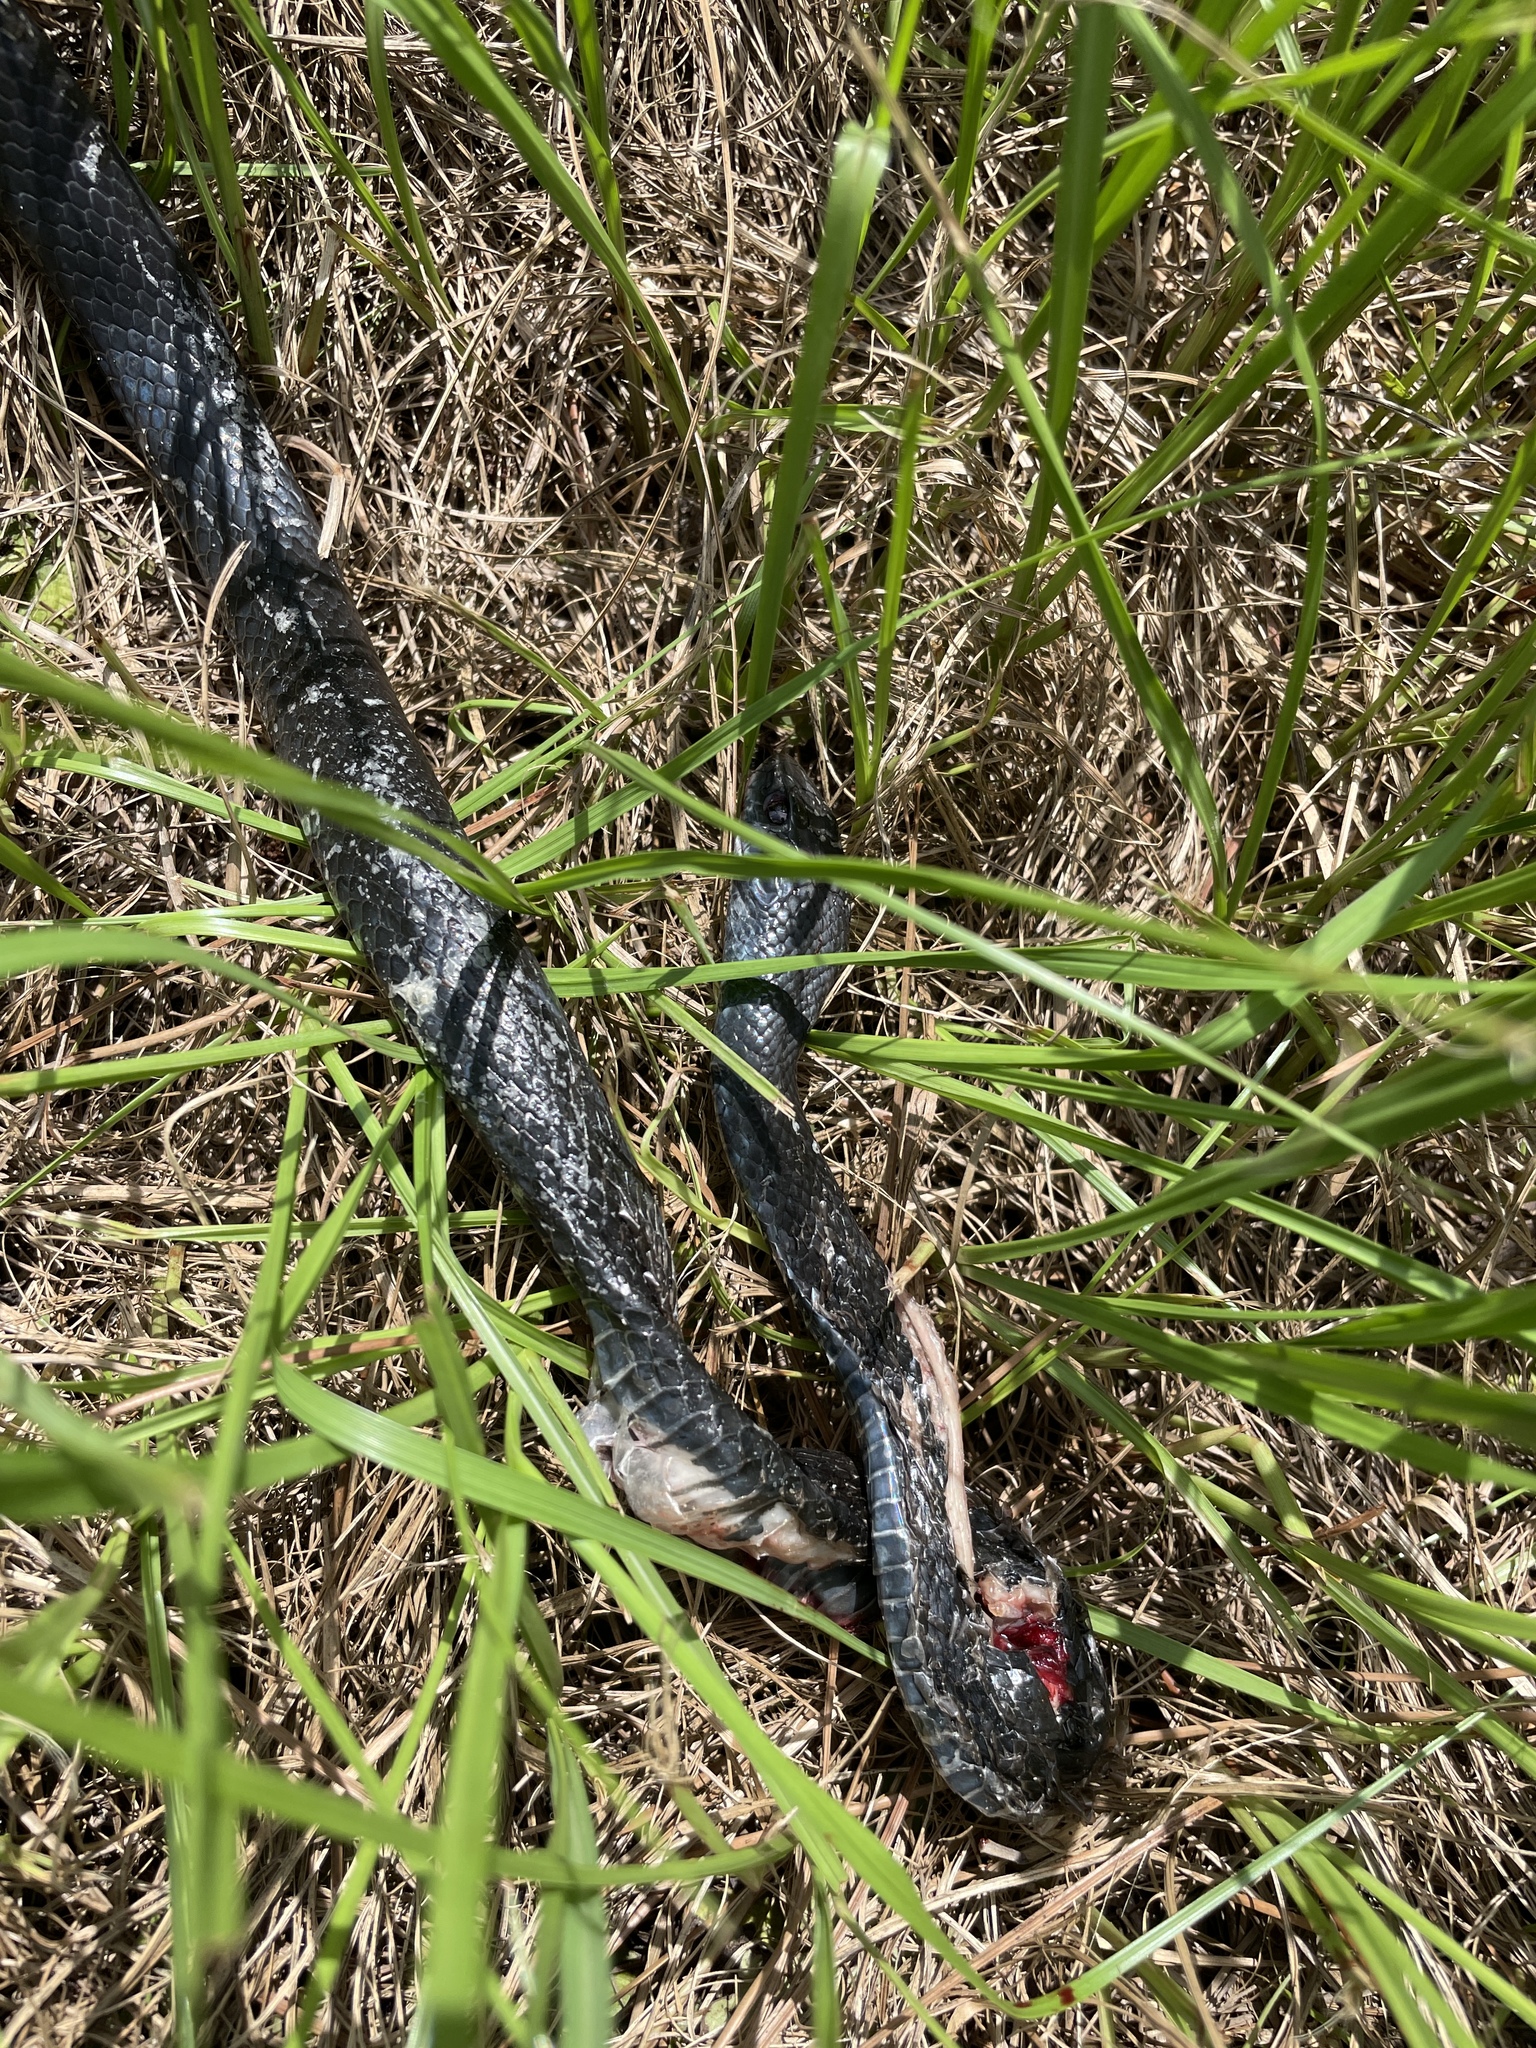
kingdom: Animalia
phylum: Chordata
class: Squamata
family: Colubridae
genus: Coluber
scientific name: Coluber constrictor
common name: Eastern racer
